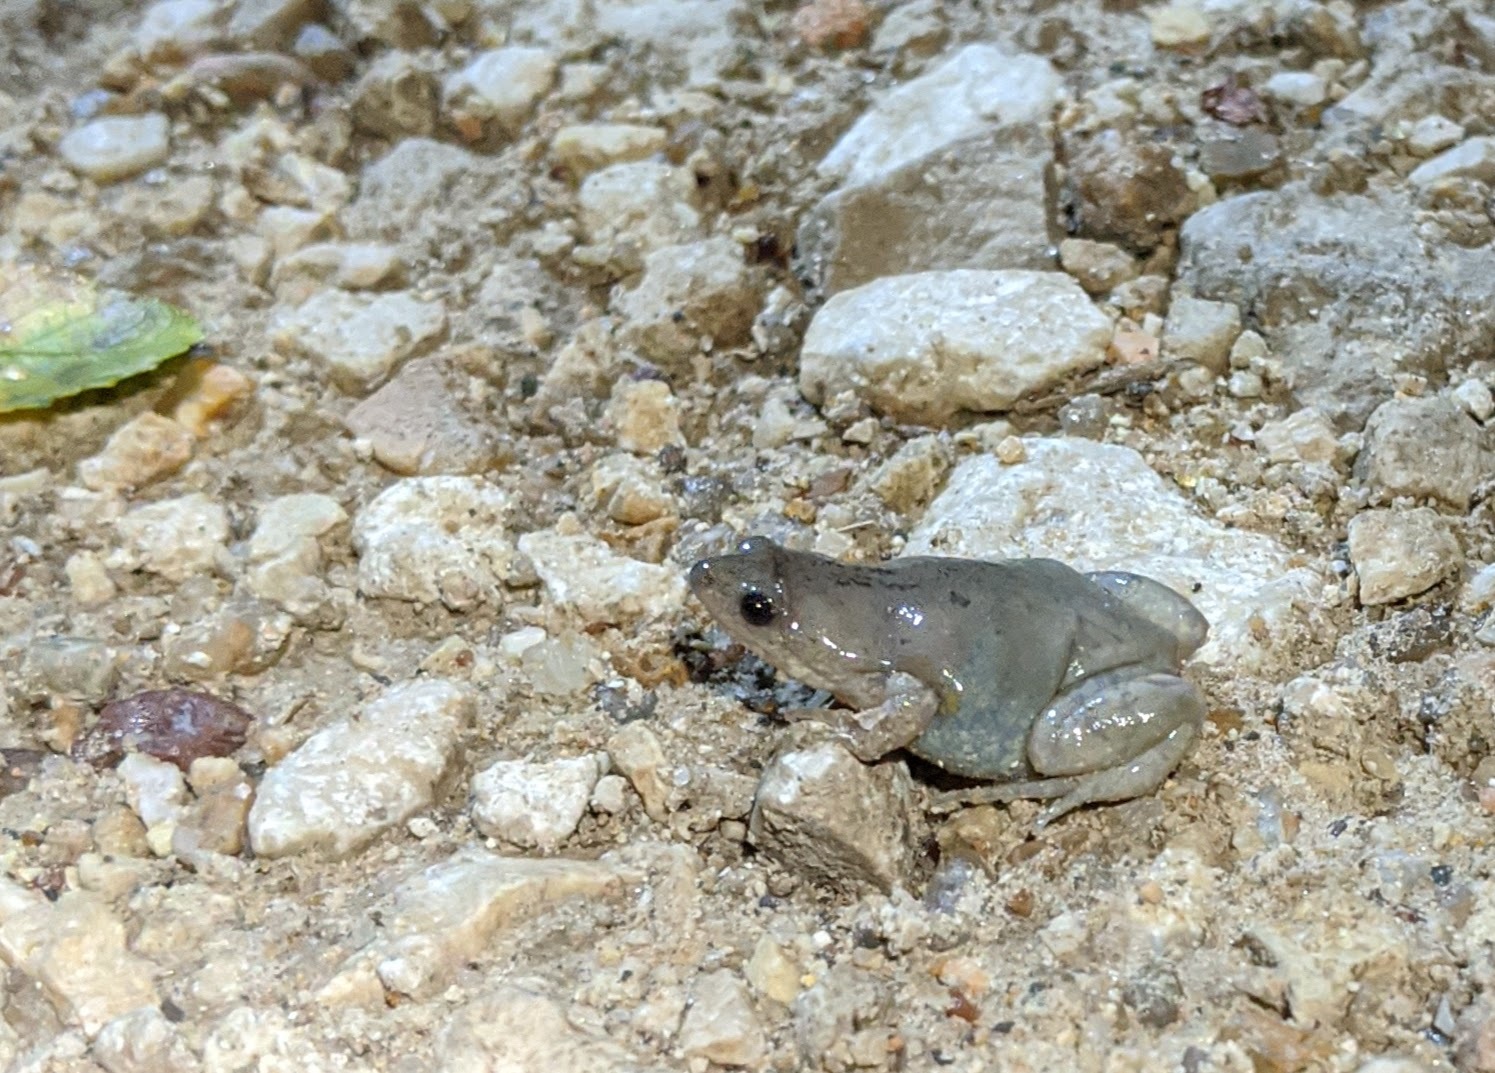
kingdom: Animalia
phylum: Chordata
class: Amphibia
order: Anura
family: Microhylidae
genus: Gastrophryne
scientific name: Gastrophryne olivacea
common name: Great plains narrow-mouthed toad
